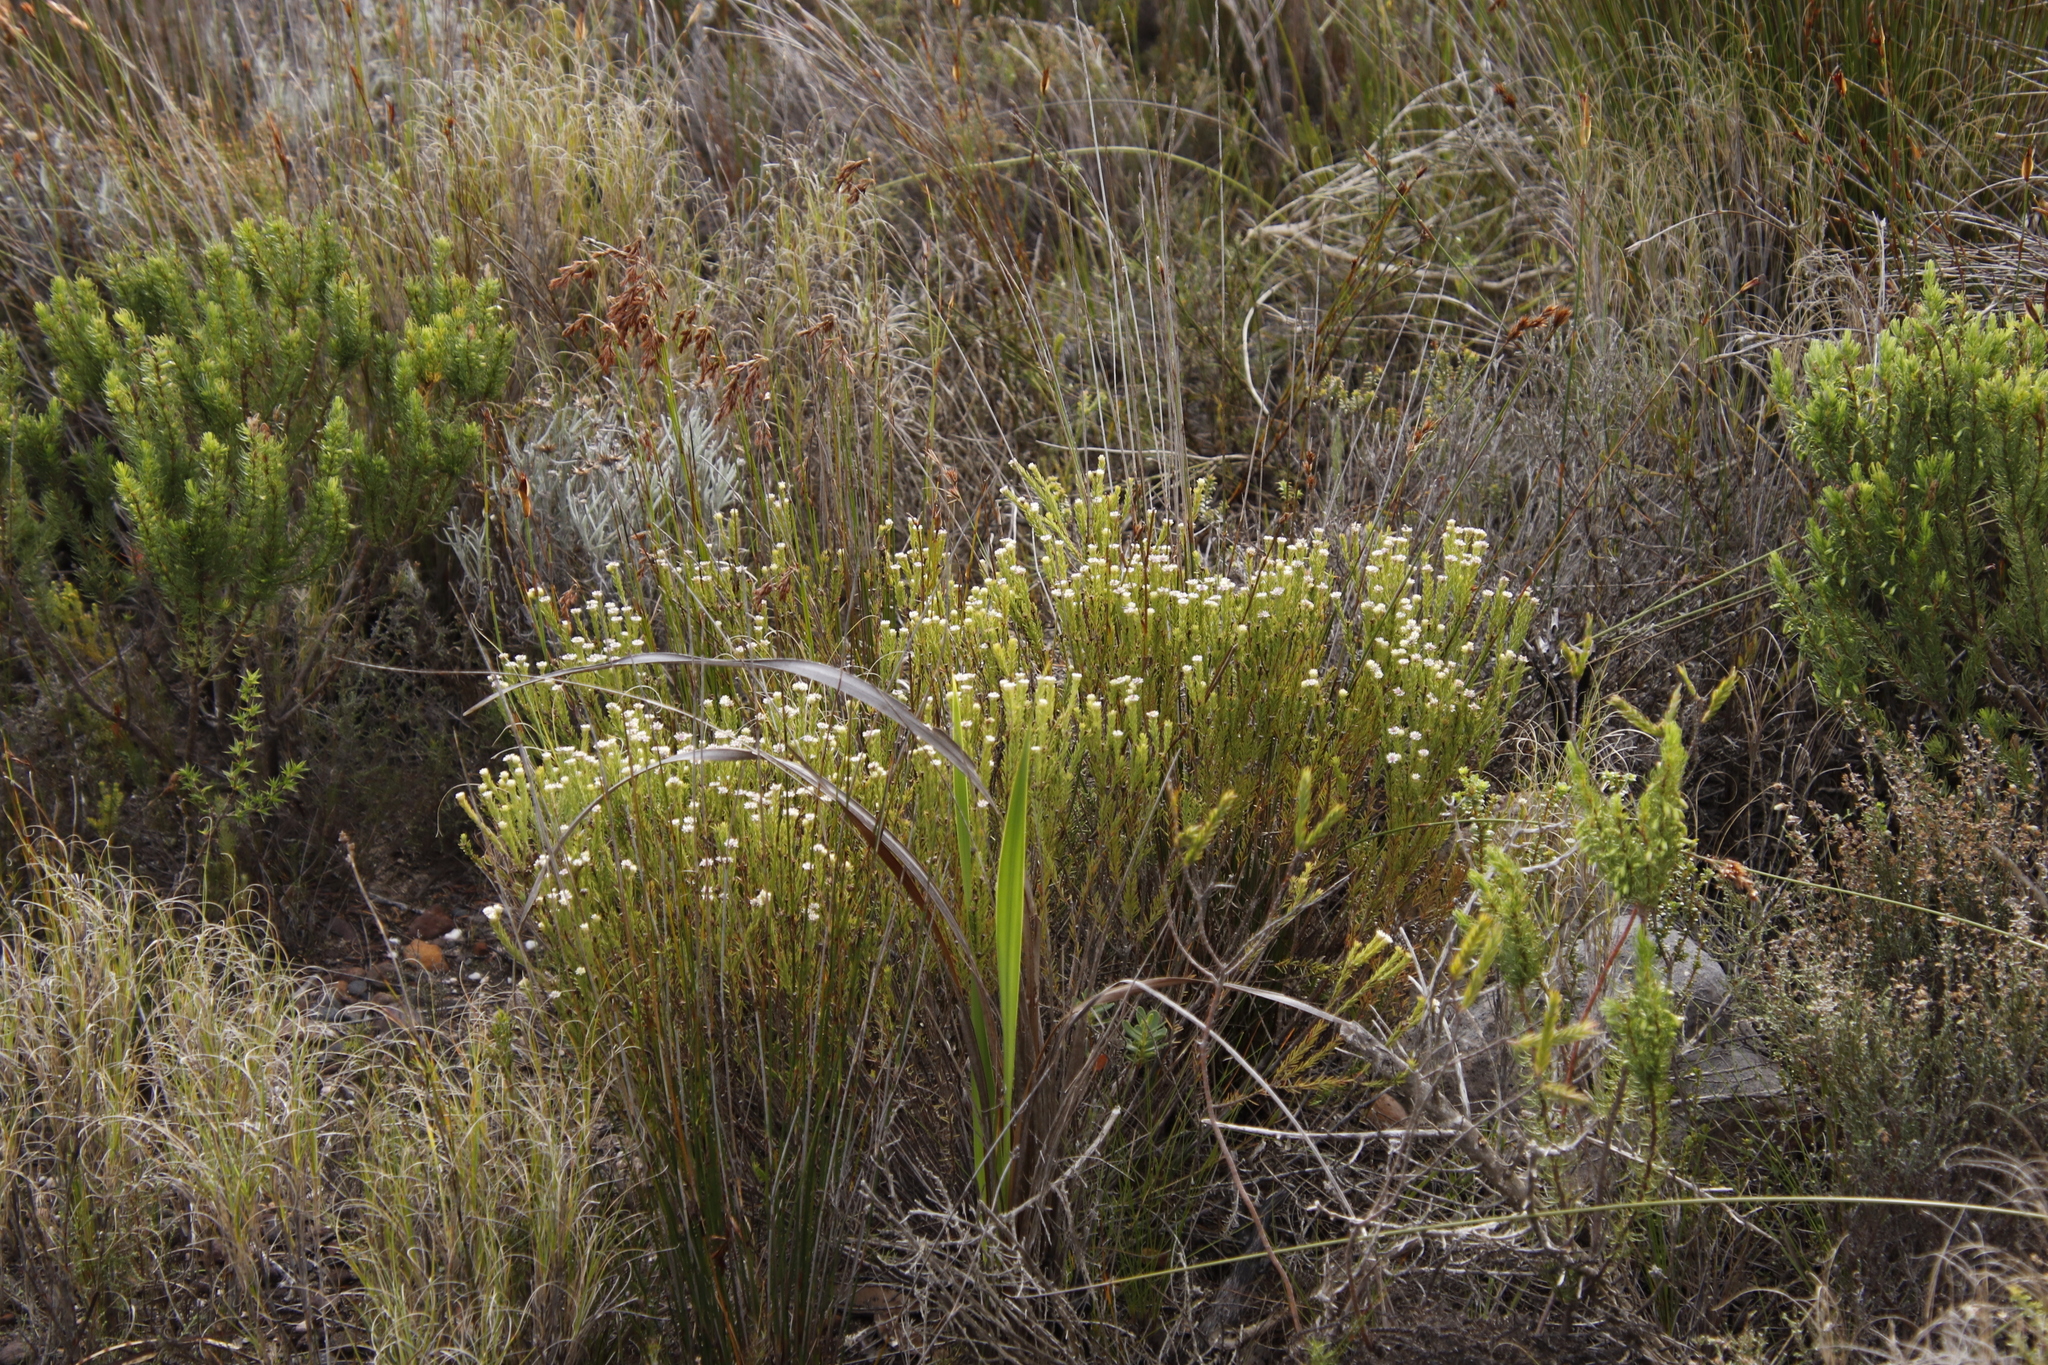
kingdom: Plantae
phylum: Tracheophyta
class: Magnoliopsida
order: Bruniales
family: Bruniaceae
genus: Staavia
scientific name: Staavia radiata
